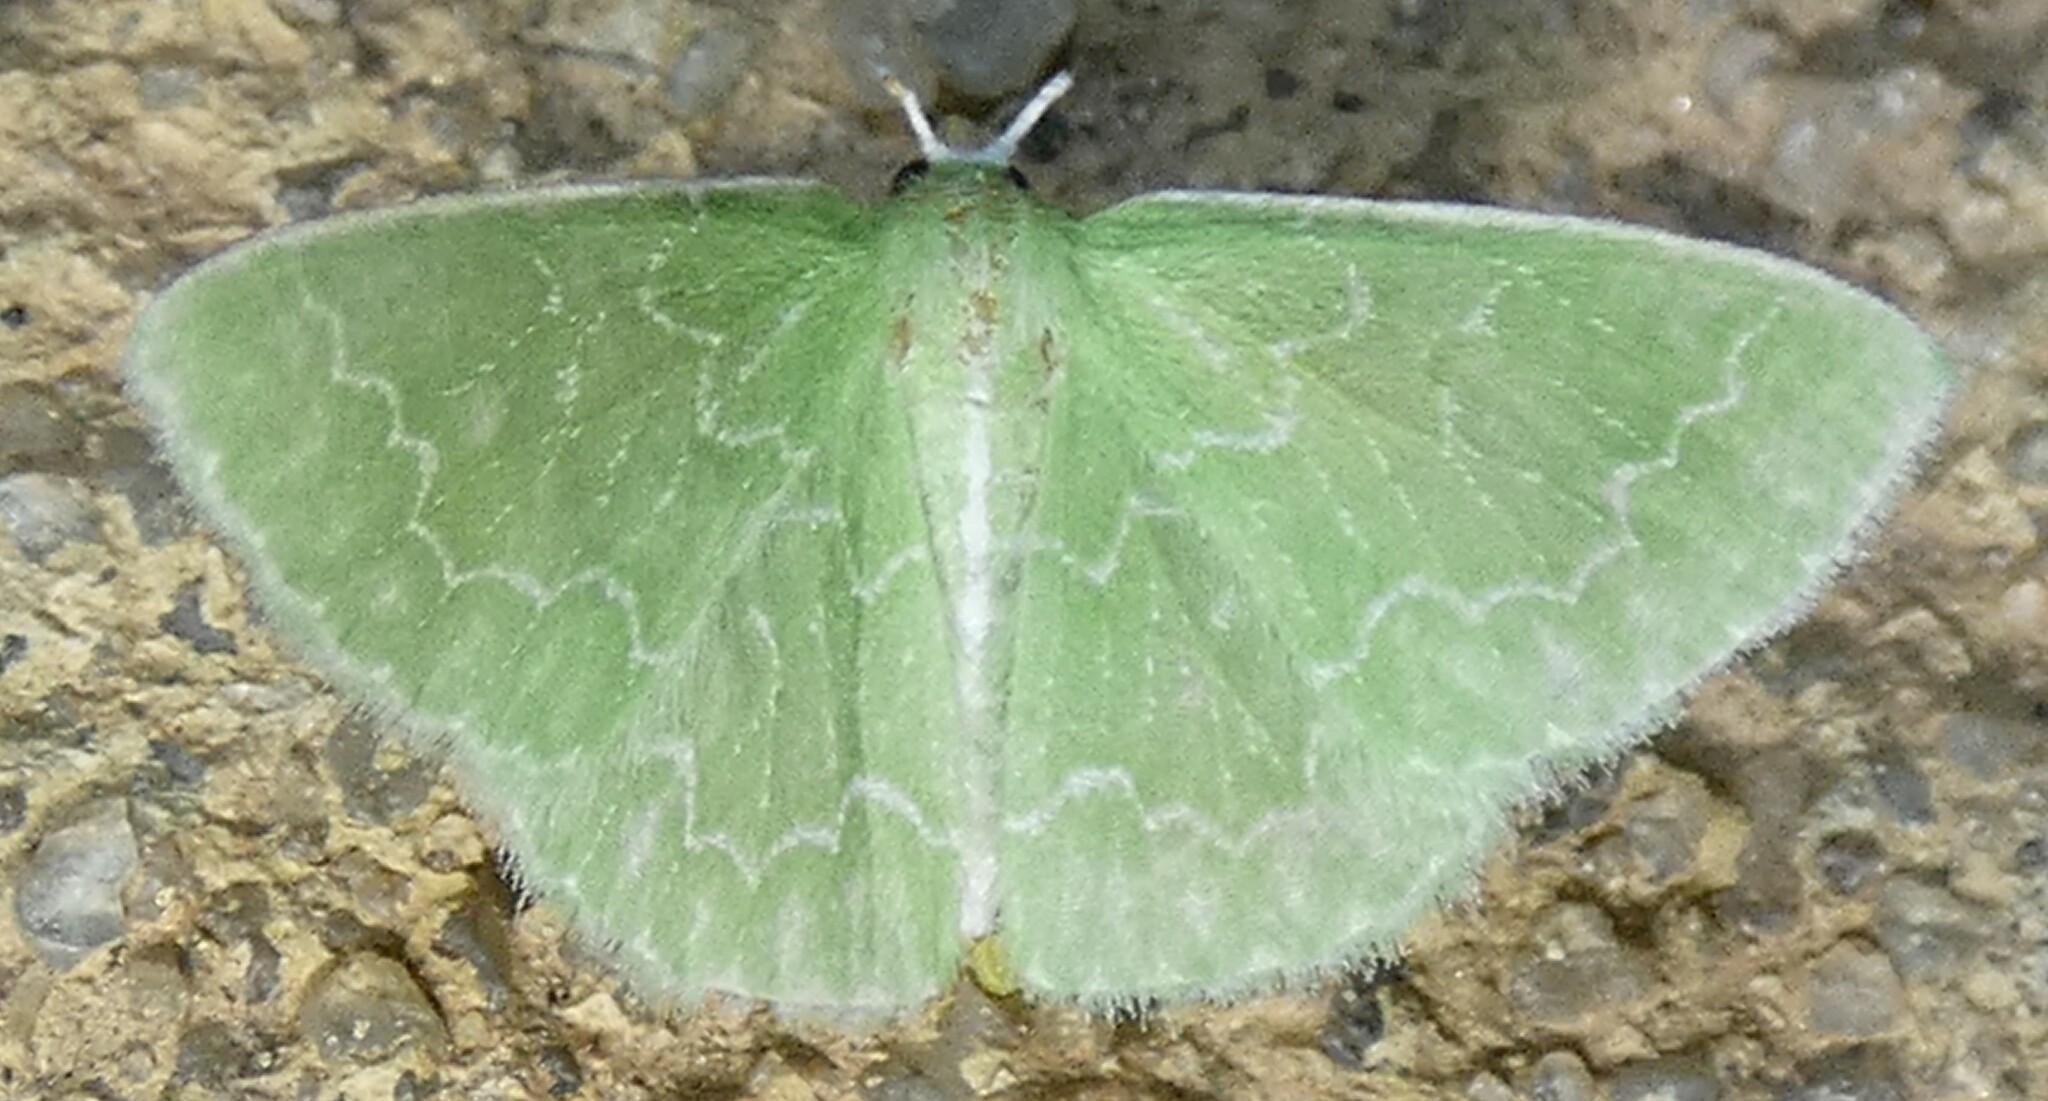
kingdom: Animalia
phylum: Arthropoda
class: Insecta
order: Lepidoptera
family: Geometridae
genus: Synchlora
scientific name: Synchlora frondaria
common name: Southern emerald
